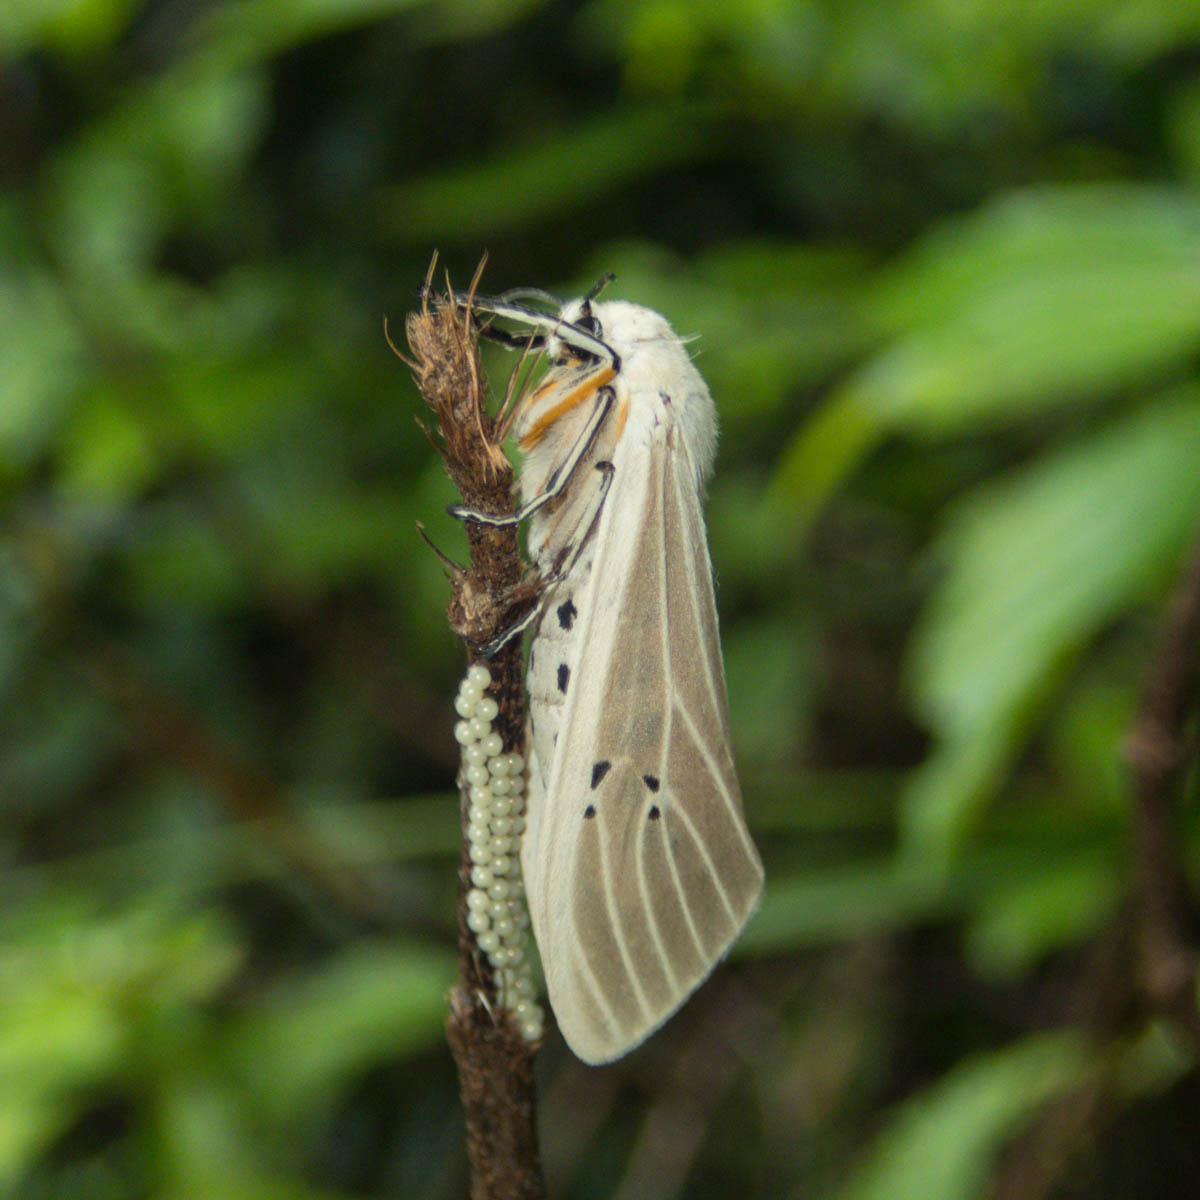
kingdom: Animalia
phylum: Arthropoda
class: Insecta
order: Lepidoptera
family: Erebidae
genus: Creatonotos
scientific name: Creatonotos transiens
